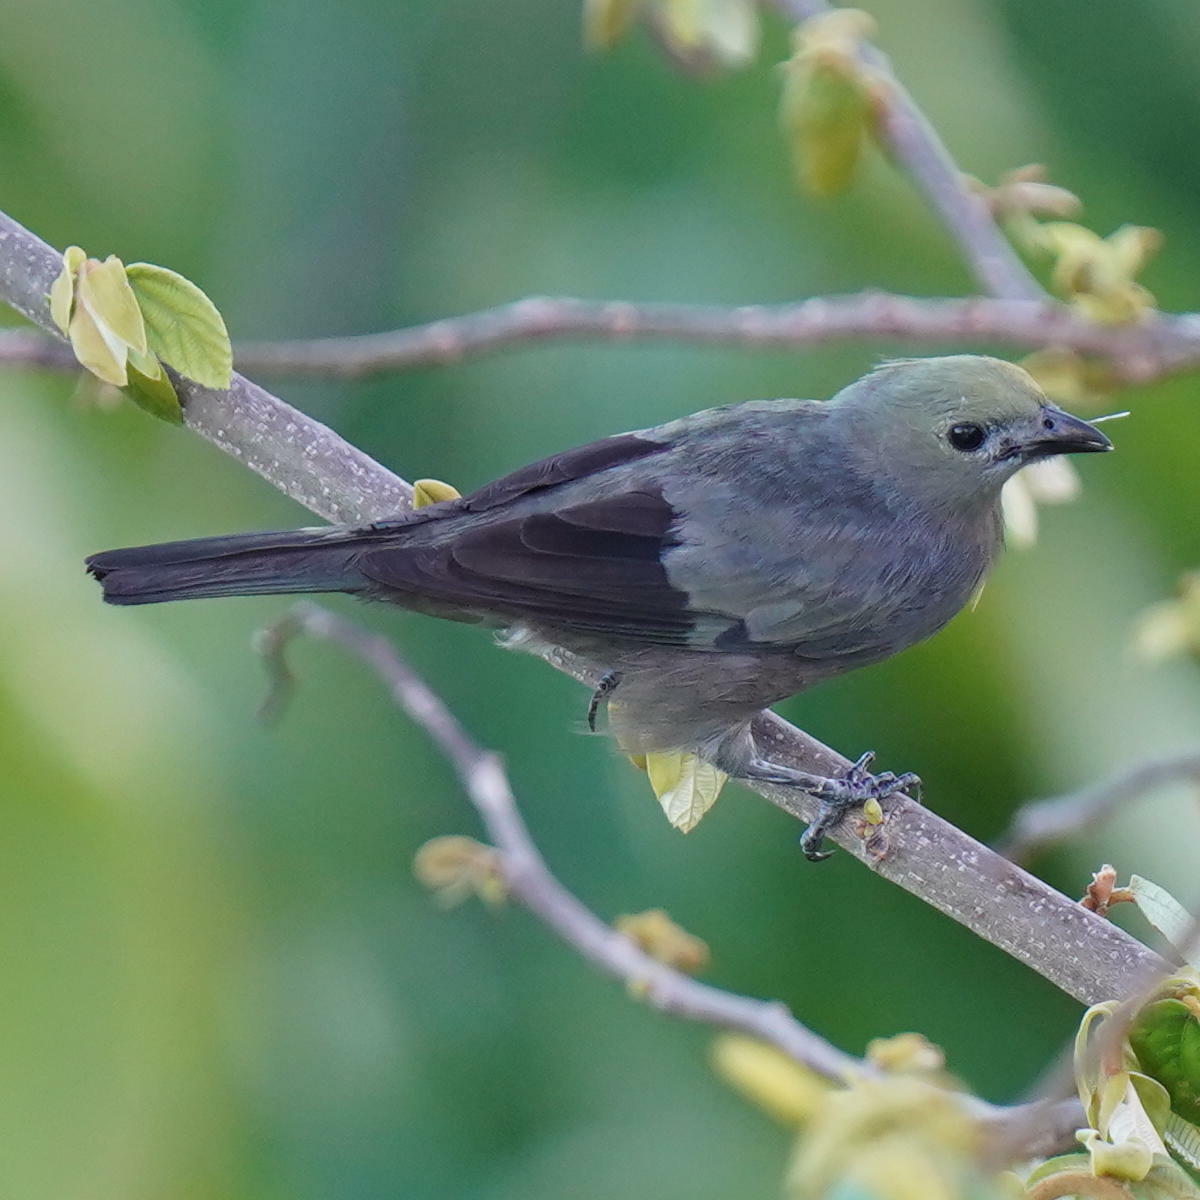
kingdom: Animalia
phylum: Chordata
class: Aves
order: Passeriformes
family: Thraupidae
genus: Thraupis
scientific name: Thraupis palmarum
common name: Palm tanager
